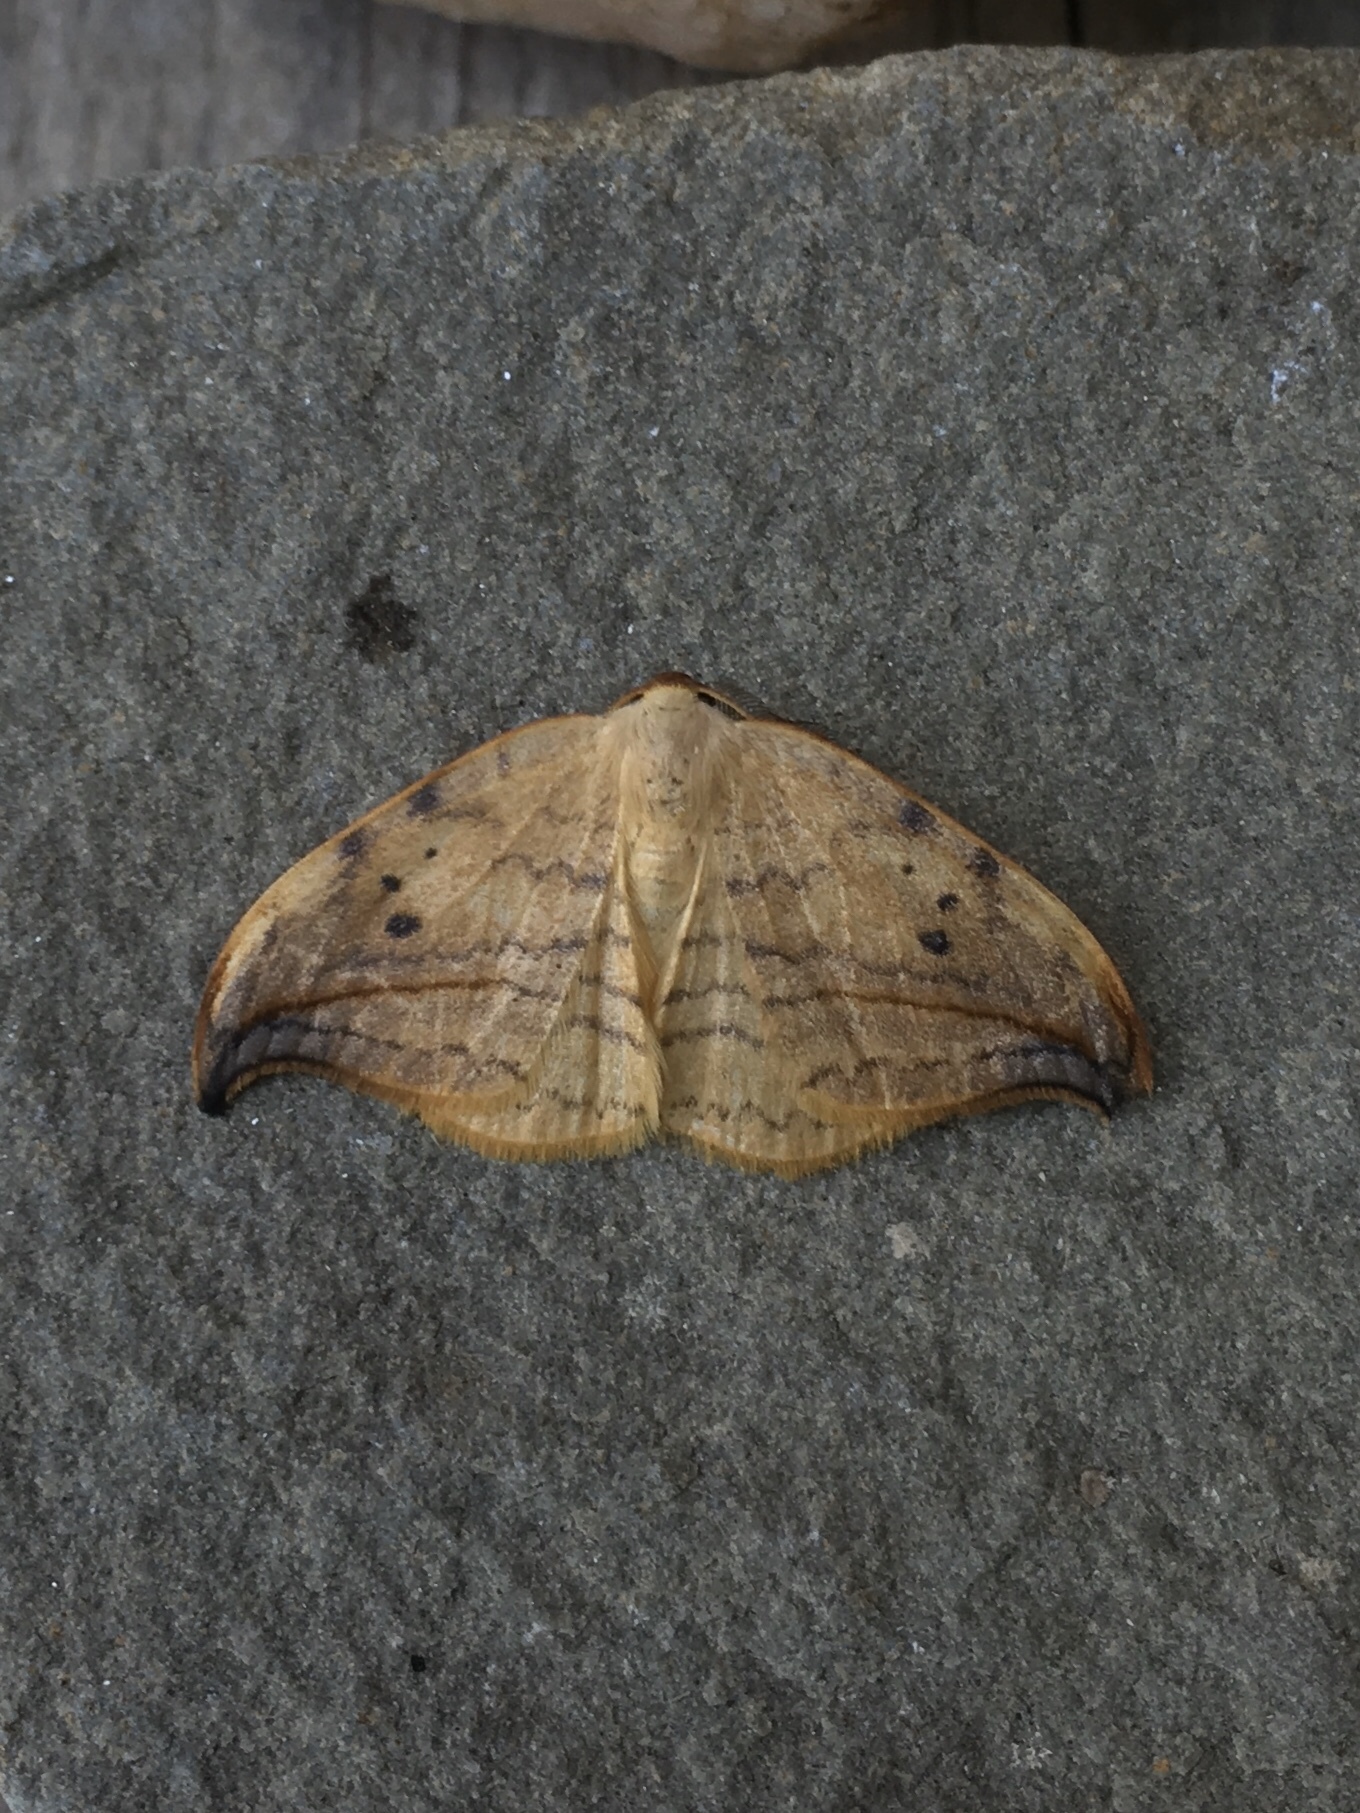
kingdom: Animalia
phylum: Arthropoda
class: Insecta
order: Lepidoptera
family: Drepanidae
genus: Drepana
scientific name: Drepana arcuata
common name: Arched hooktip moth
